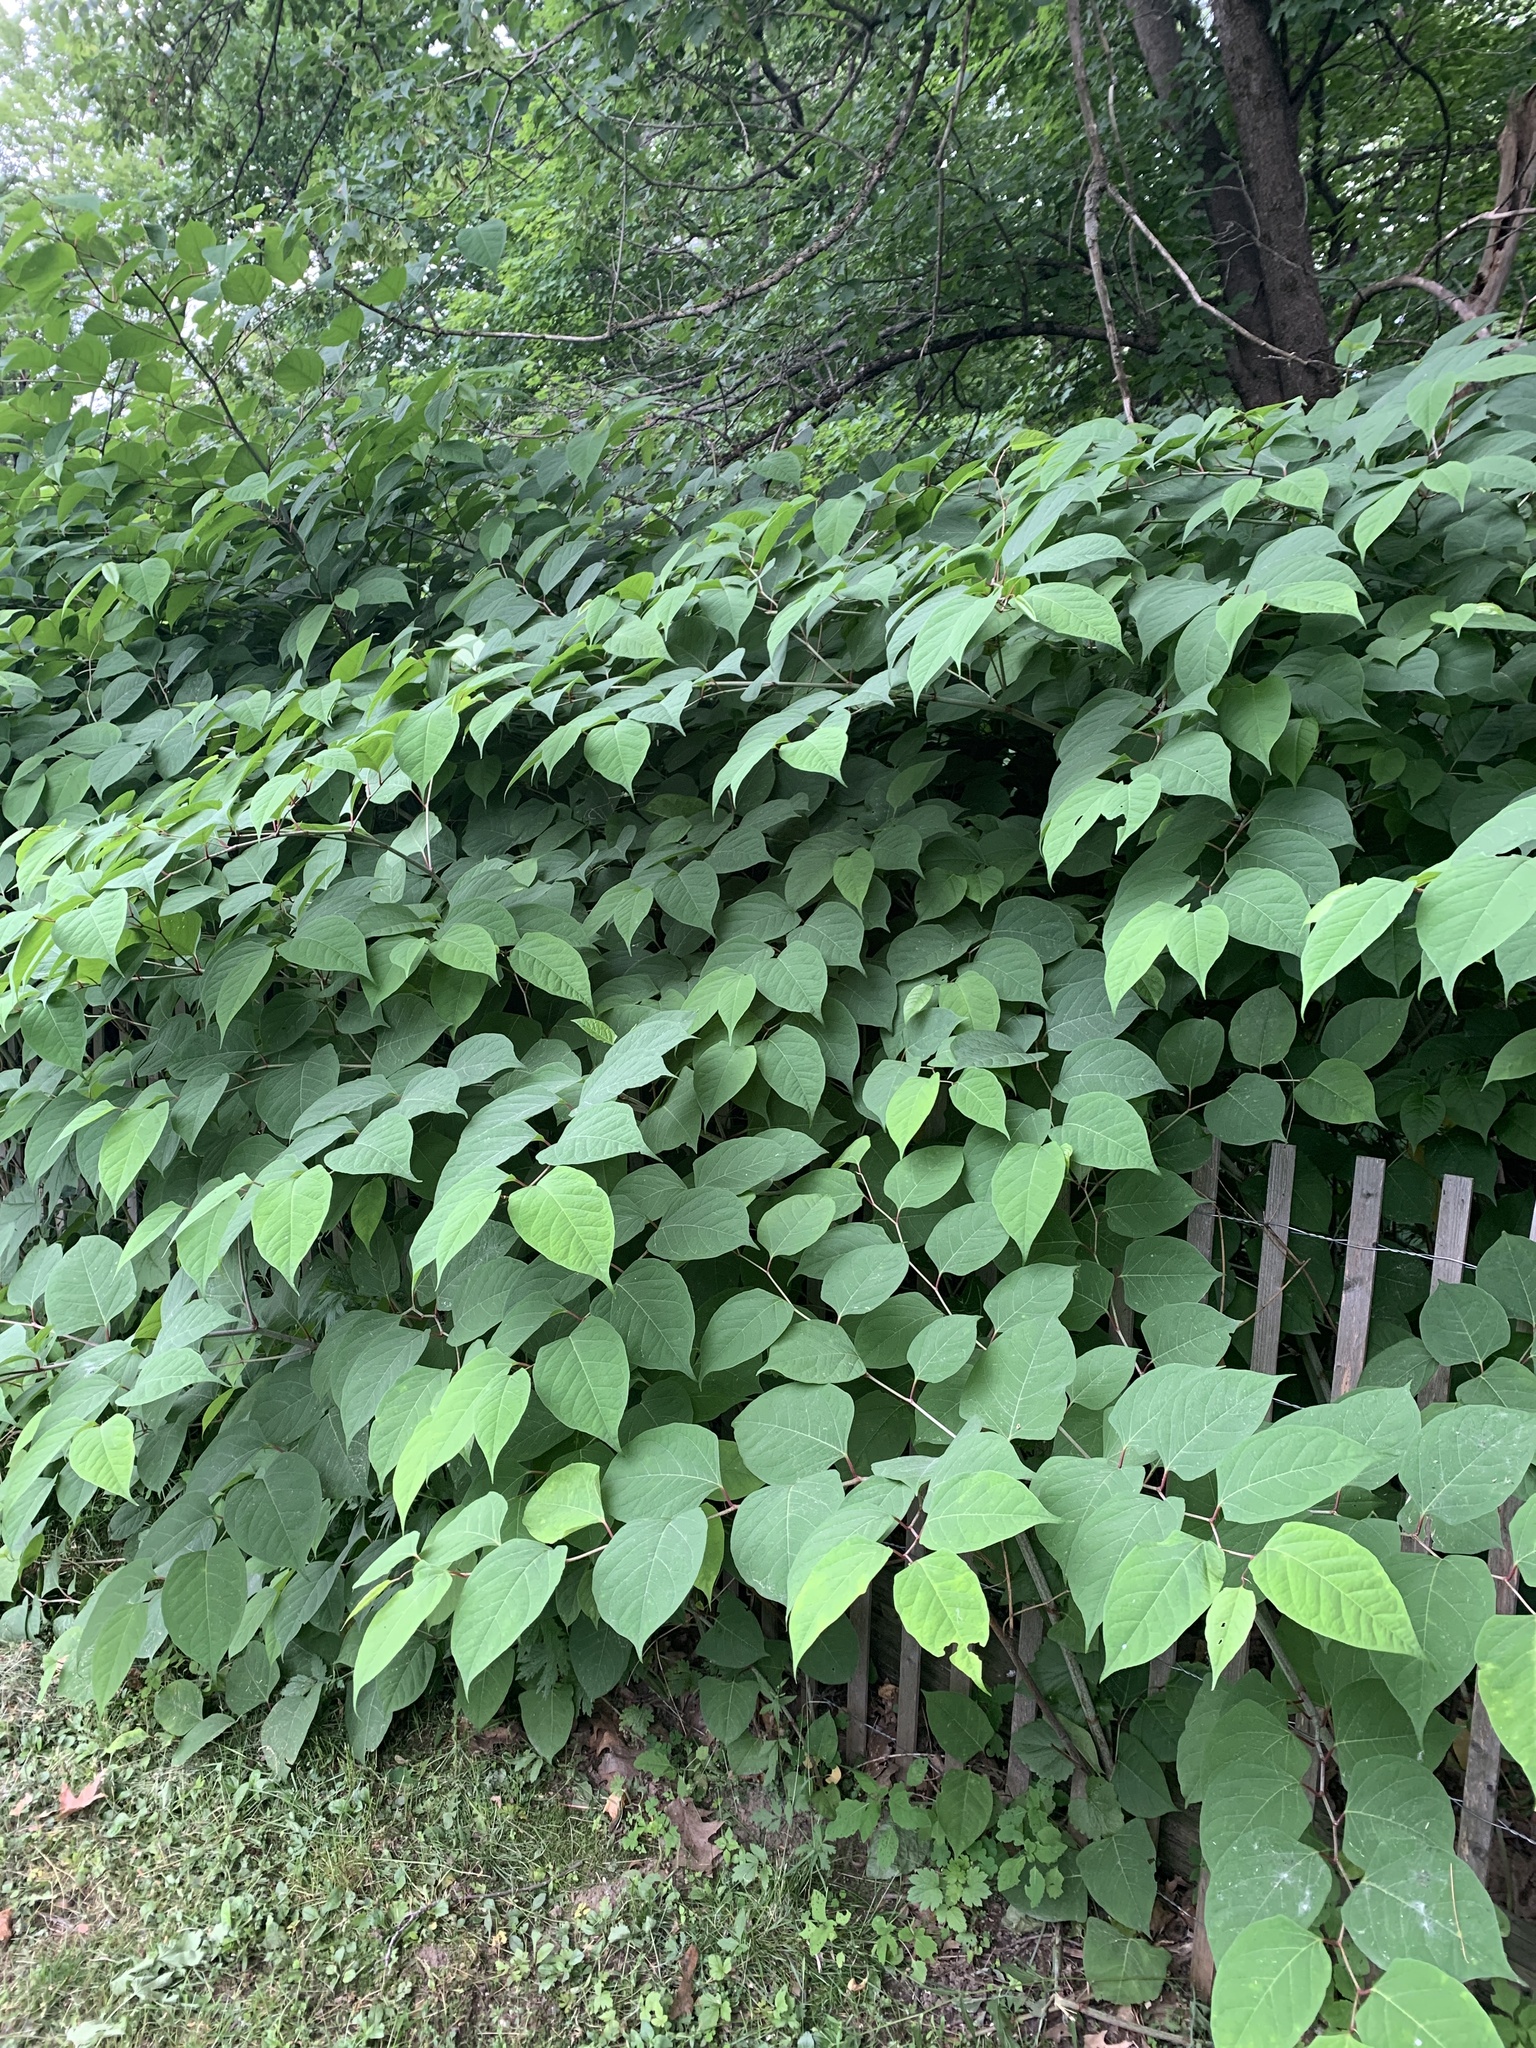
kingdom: Plantae
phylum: Tracheophyta
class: Magnoliopsida
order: Caryophyllales
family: Polygonaceae
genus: Reynoutria
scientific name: Reynoutria japonica
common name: Japanese knotweed
